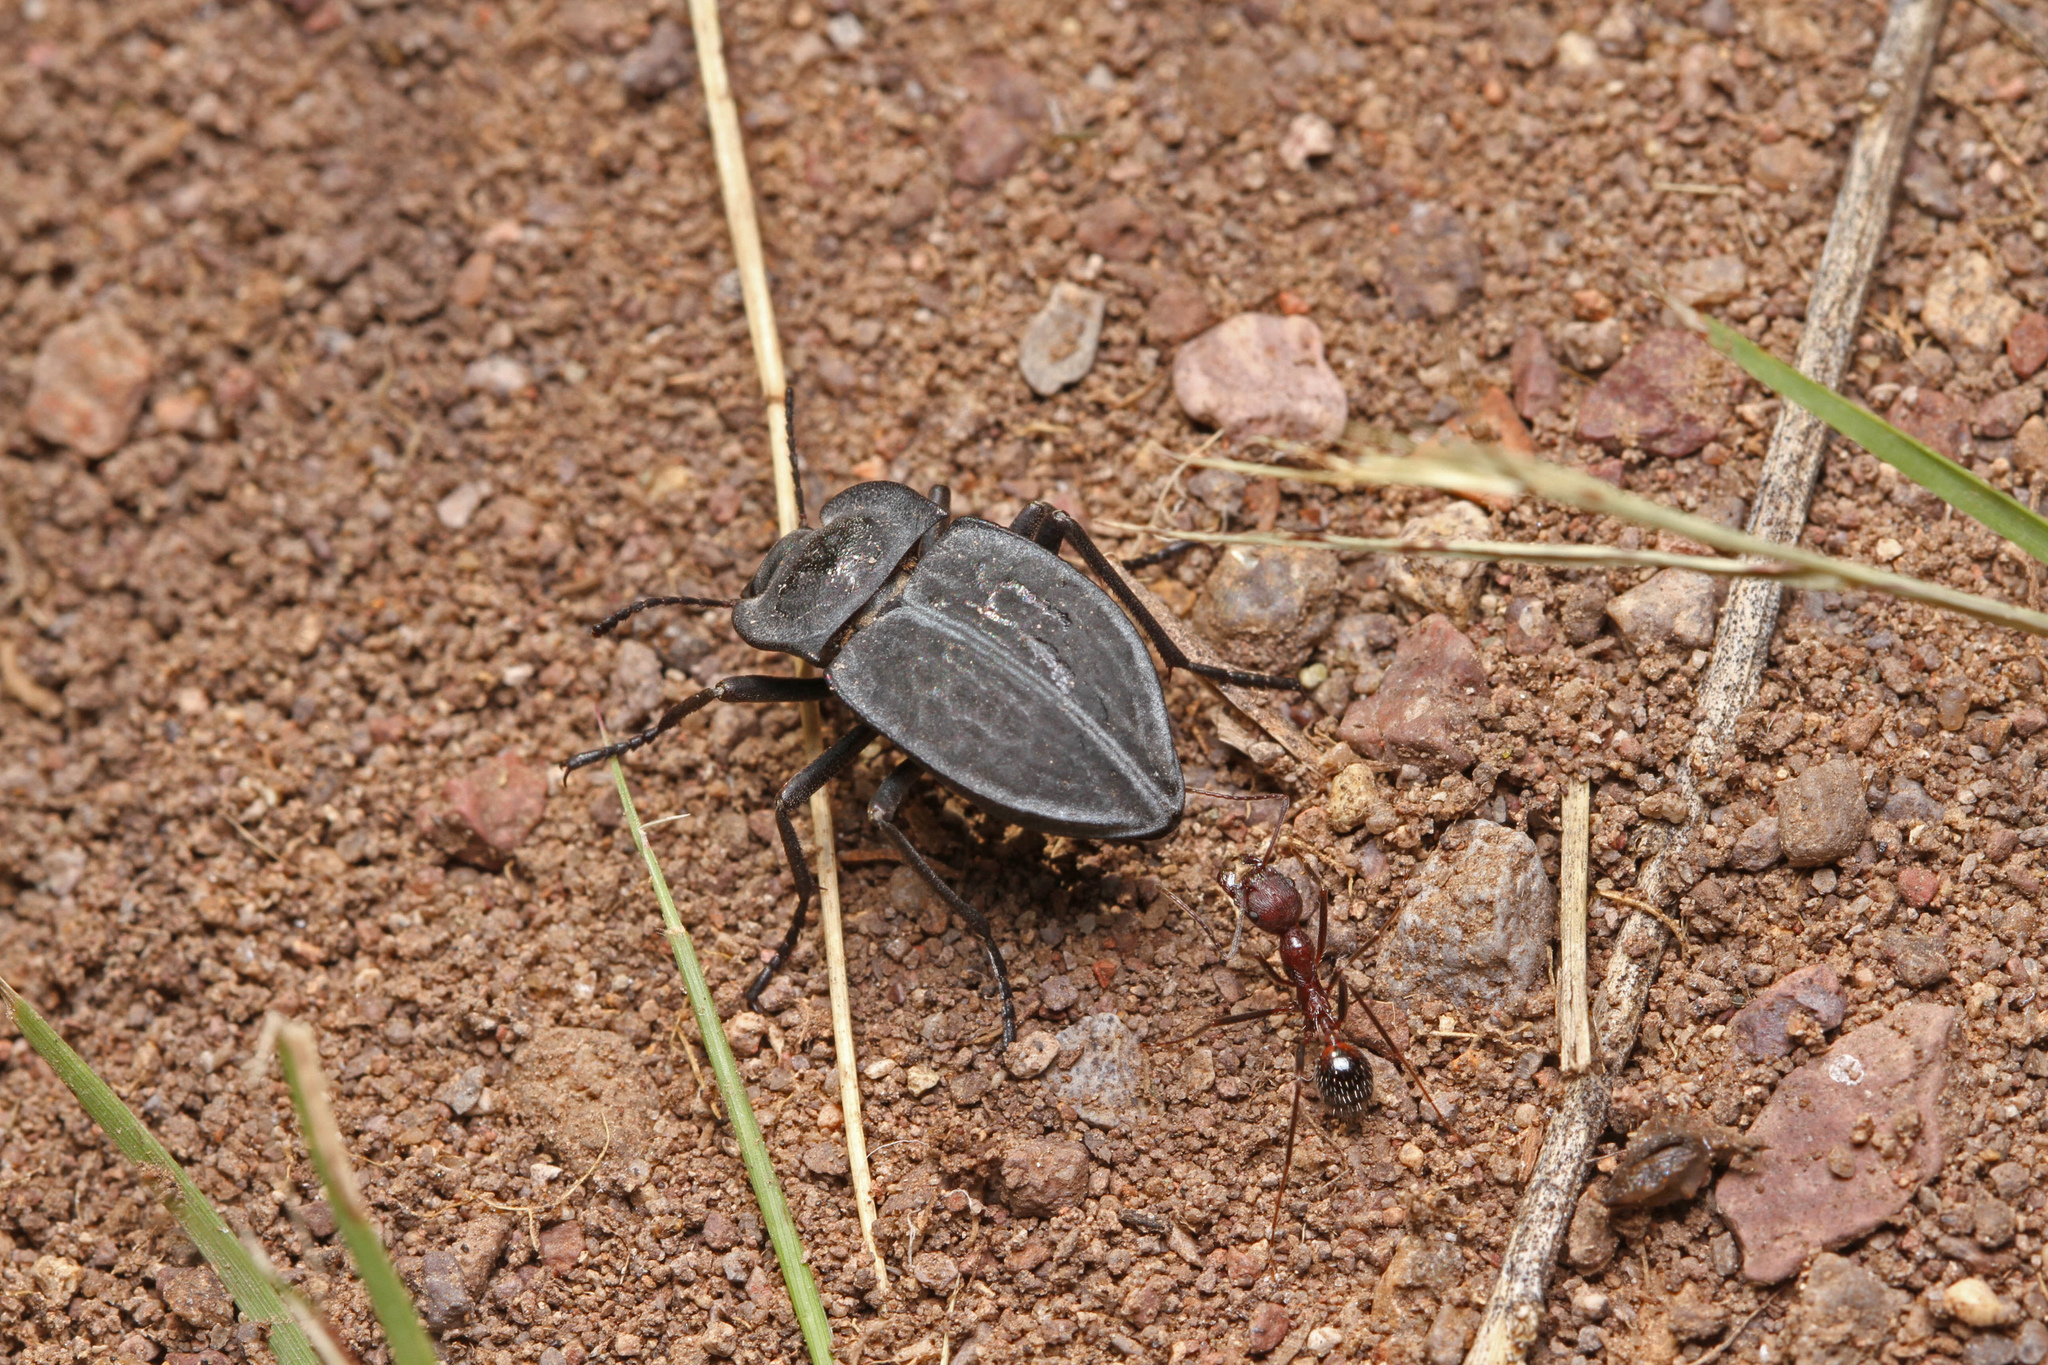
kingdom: Animalia
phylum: Arthropoda
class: Insecta
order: Coleoptera
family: Tenebrionidae
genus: Stenomorpha
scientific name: Stenomorpha opaca
